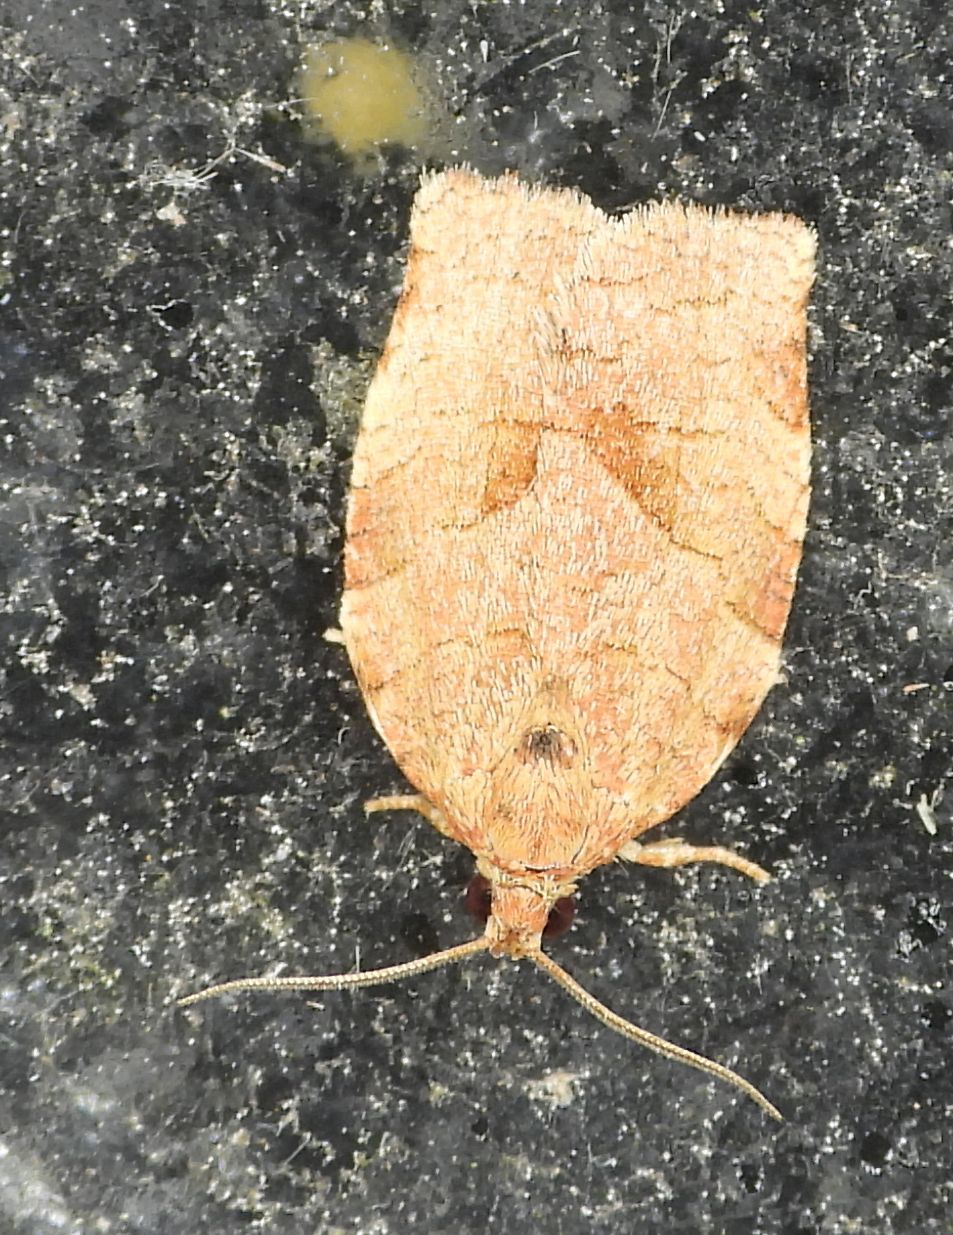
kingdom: Animalia
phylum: Arthropoda
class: Insecta
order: Lepidoptera
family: Tortricidae
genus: Choristoneura
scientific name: Choristoneura rosaceana
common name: Oblique-banded leafroller moth
